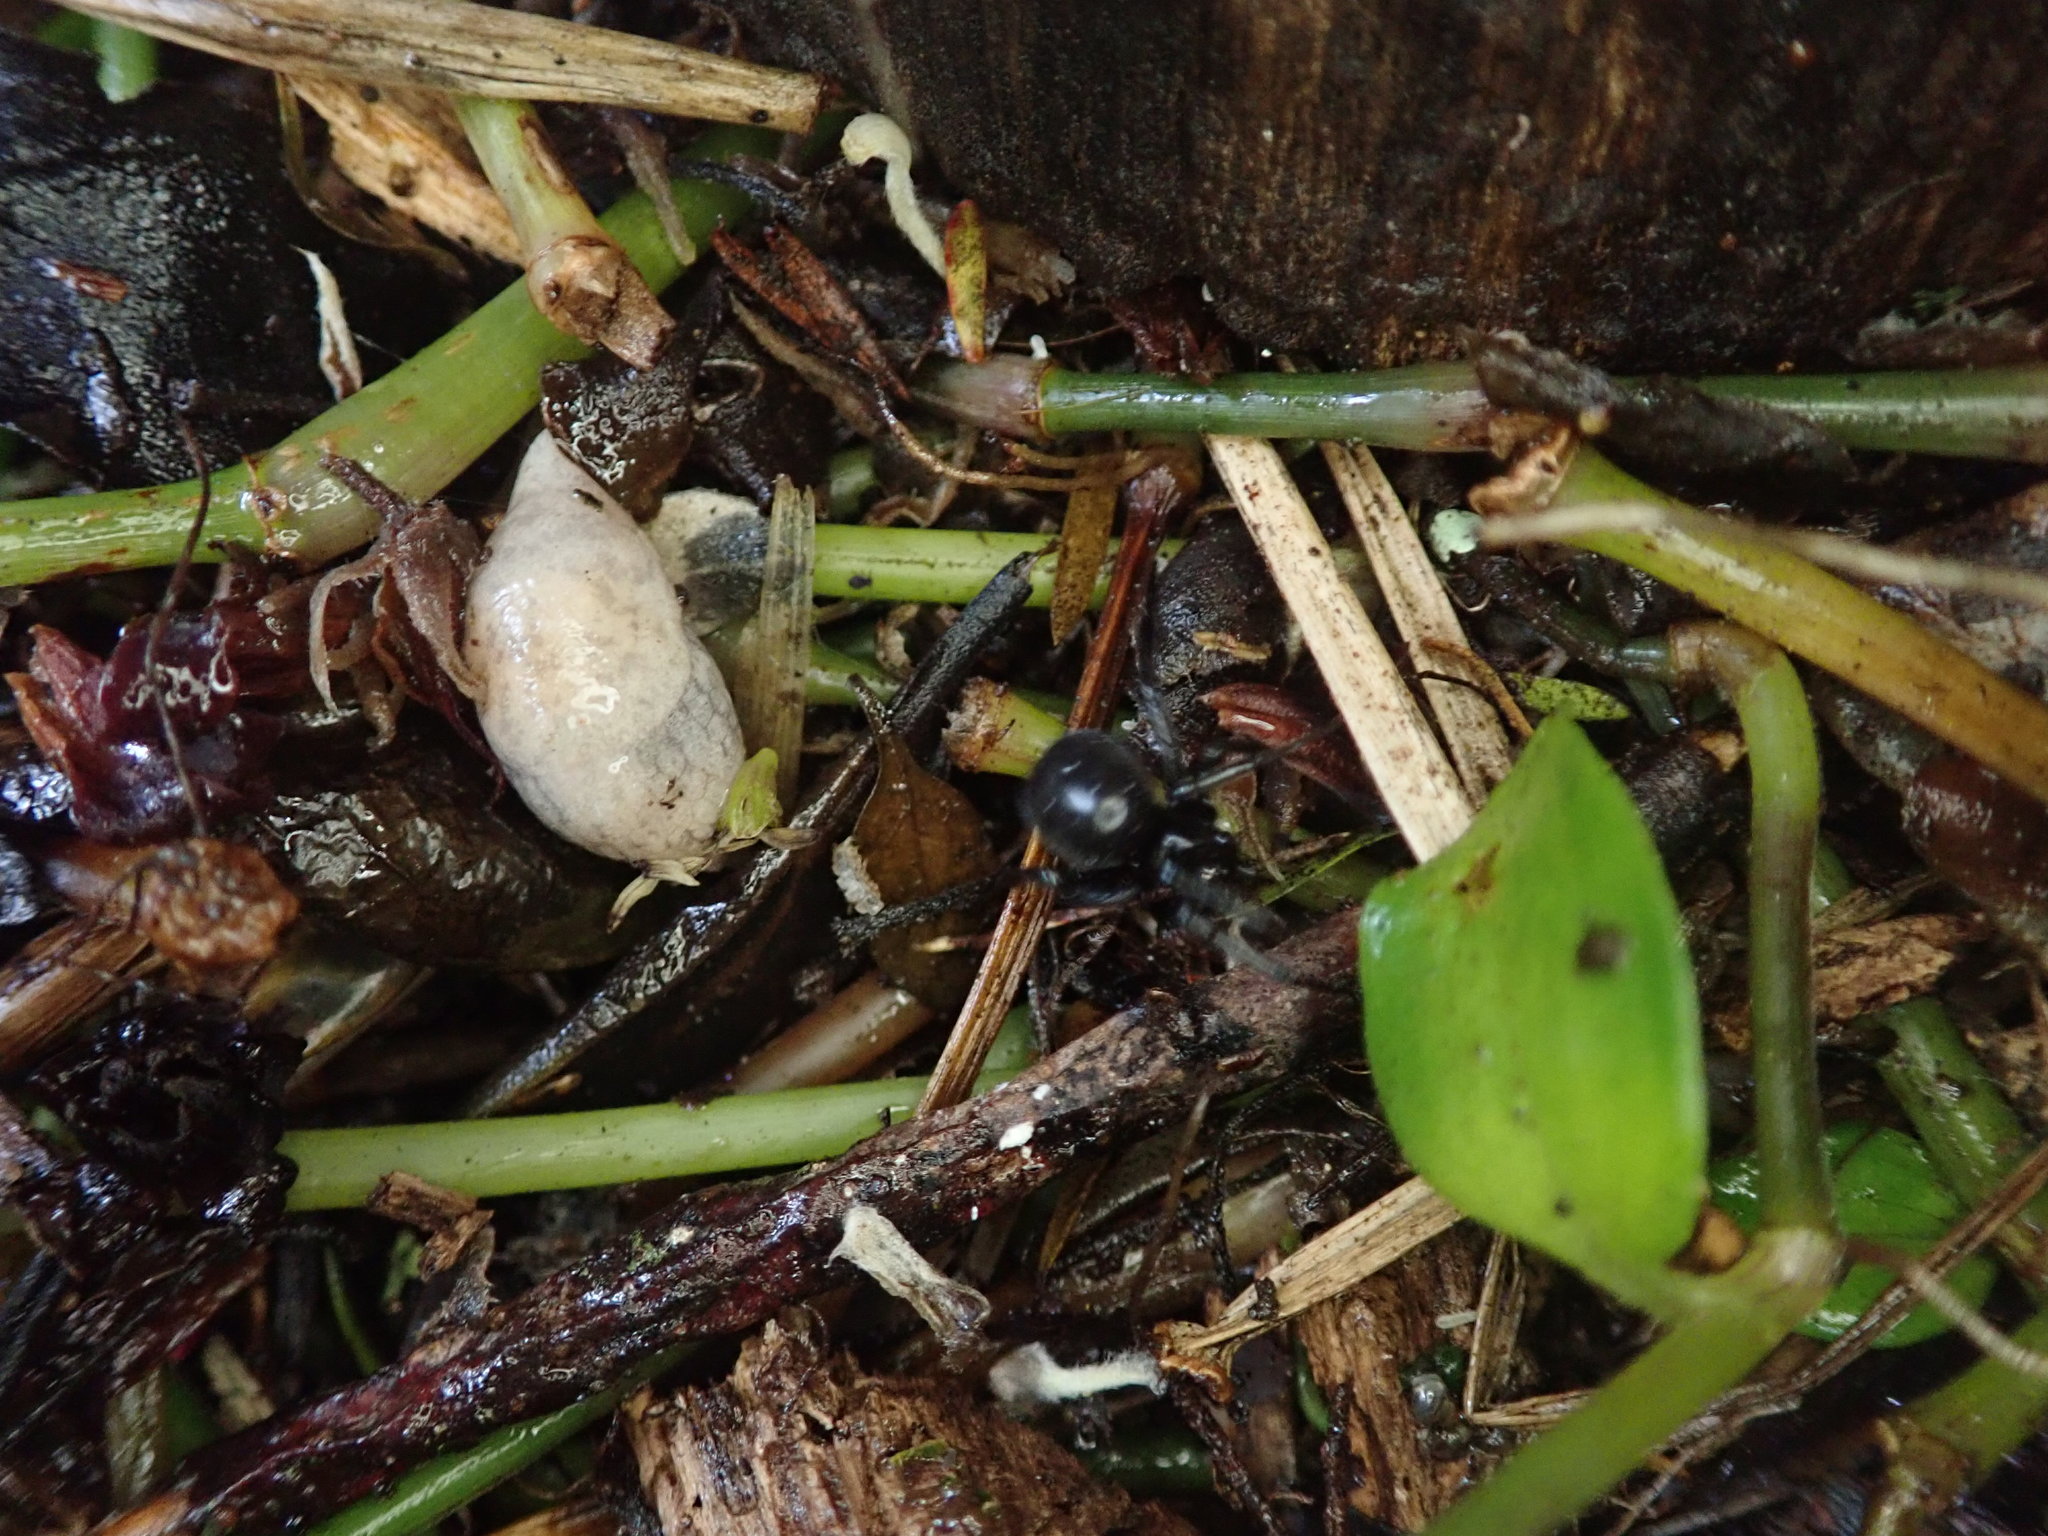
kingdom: Animalia
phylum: Mollusca
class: Gastropoda
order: Stylommatophora
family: Agriolimacidae
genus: Deroceras
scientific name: Deroceras reticulatum
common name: Gray field slug
